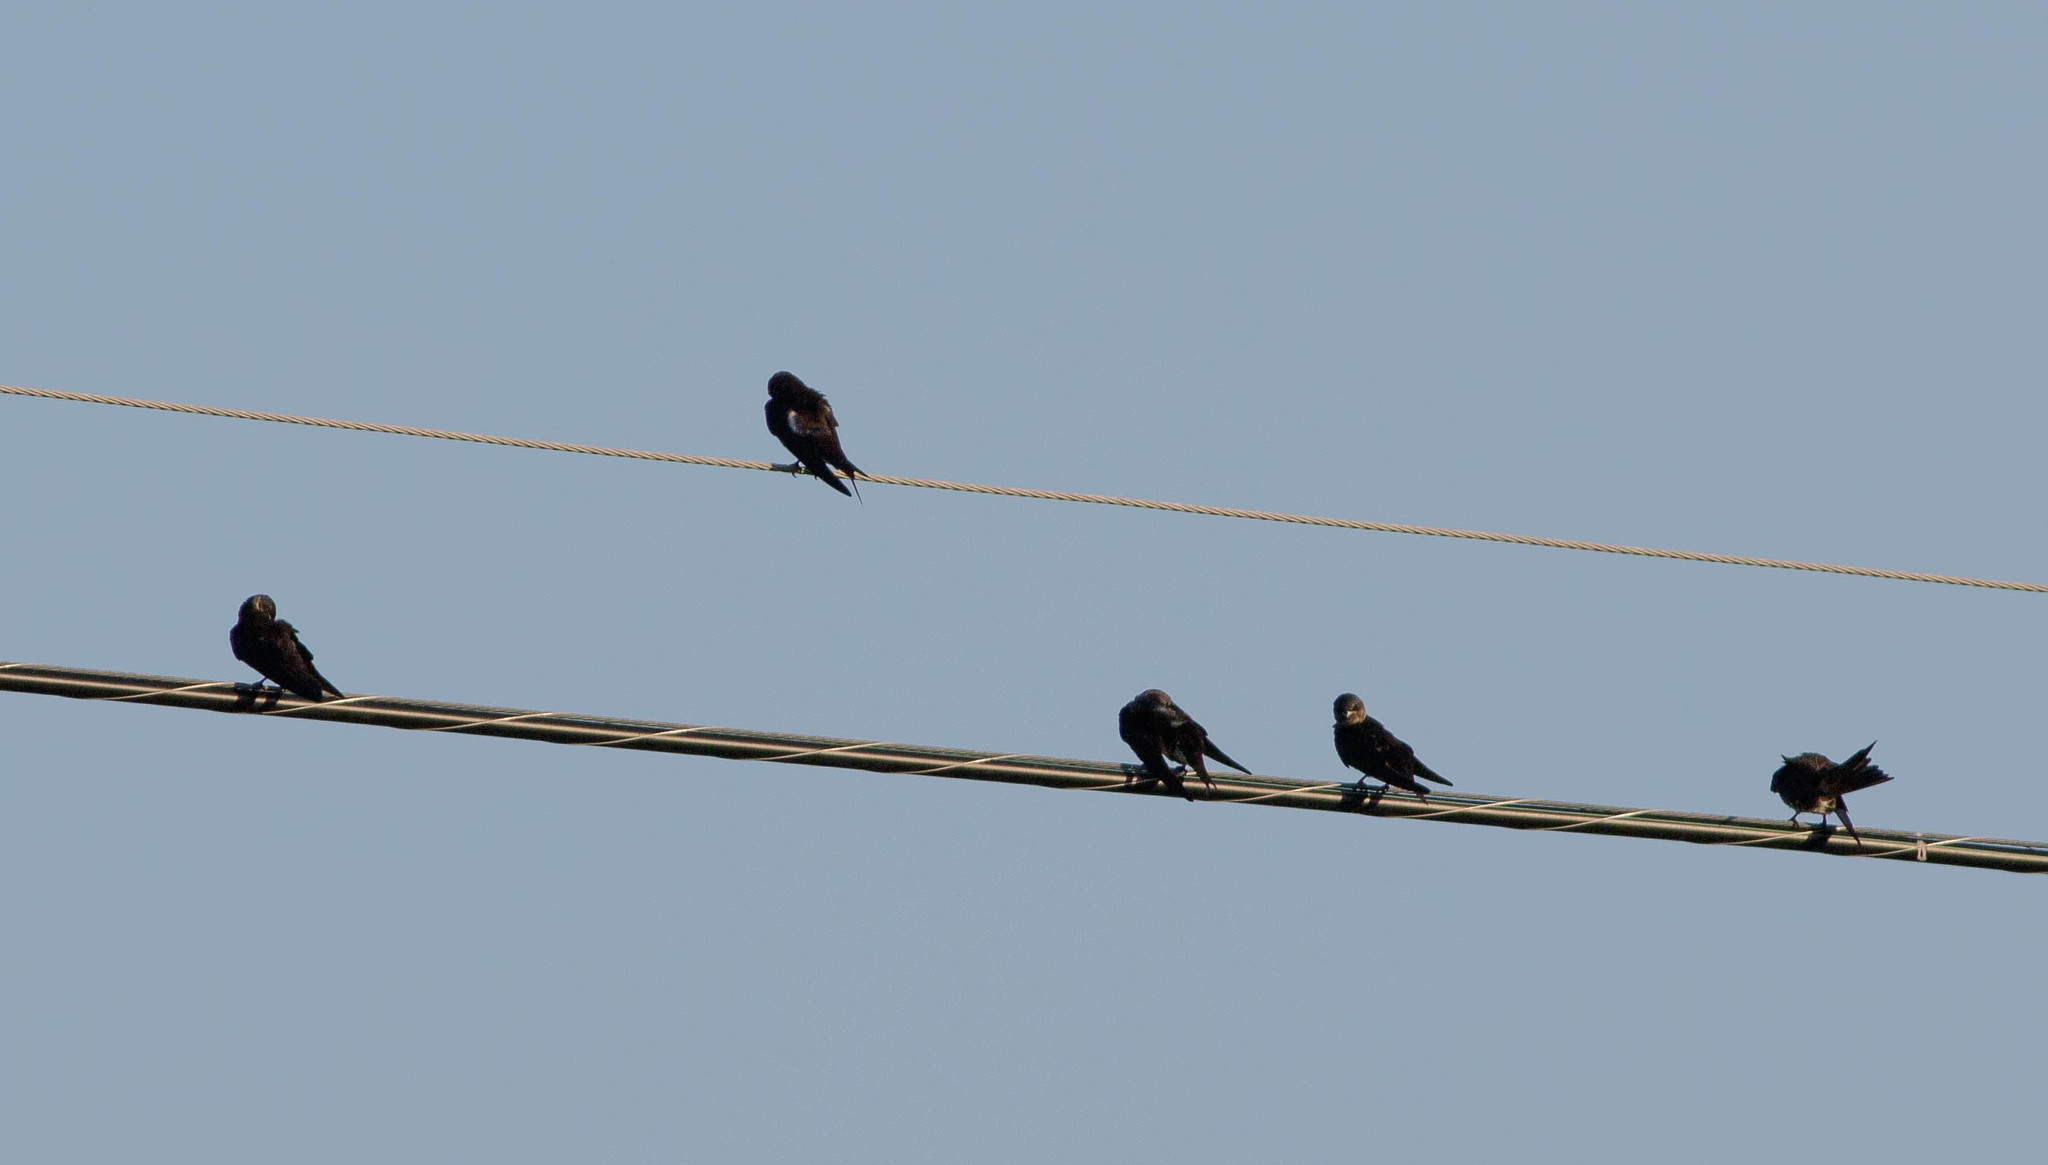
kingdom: Animalia
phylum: Chordata
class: Aves
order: Passeriformes
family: Hirundinidae
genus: Progne
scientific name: Progne subis
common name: Purple martin
